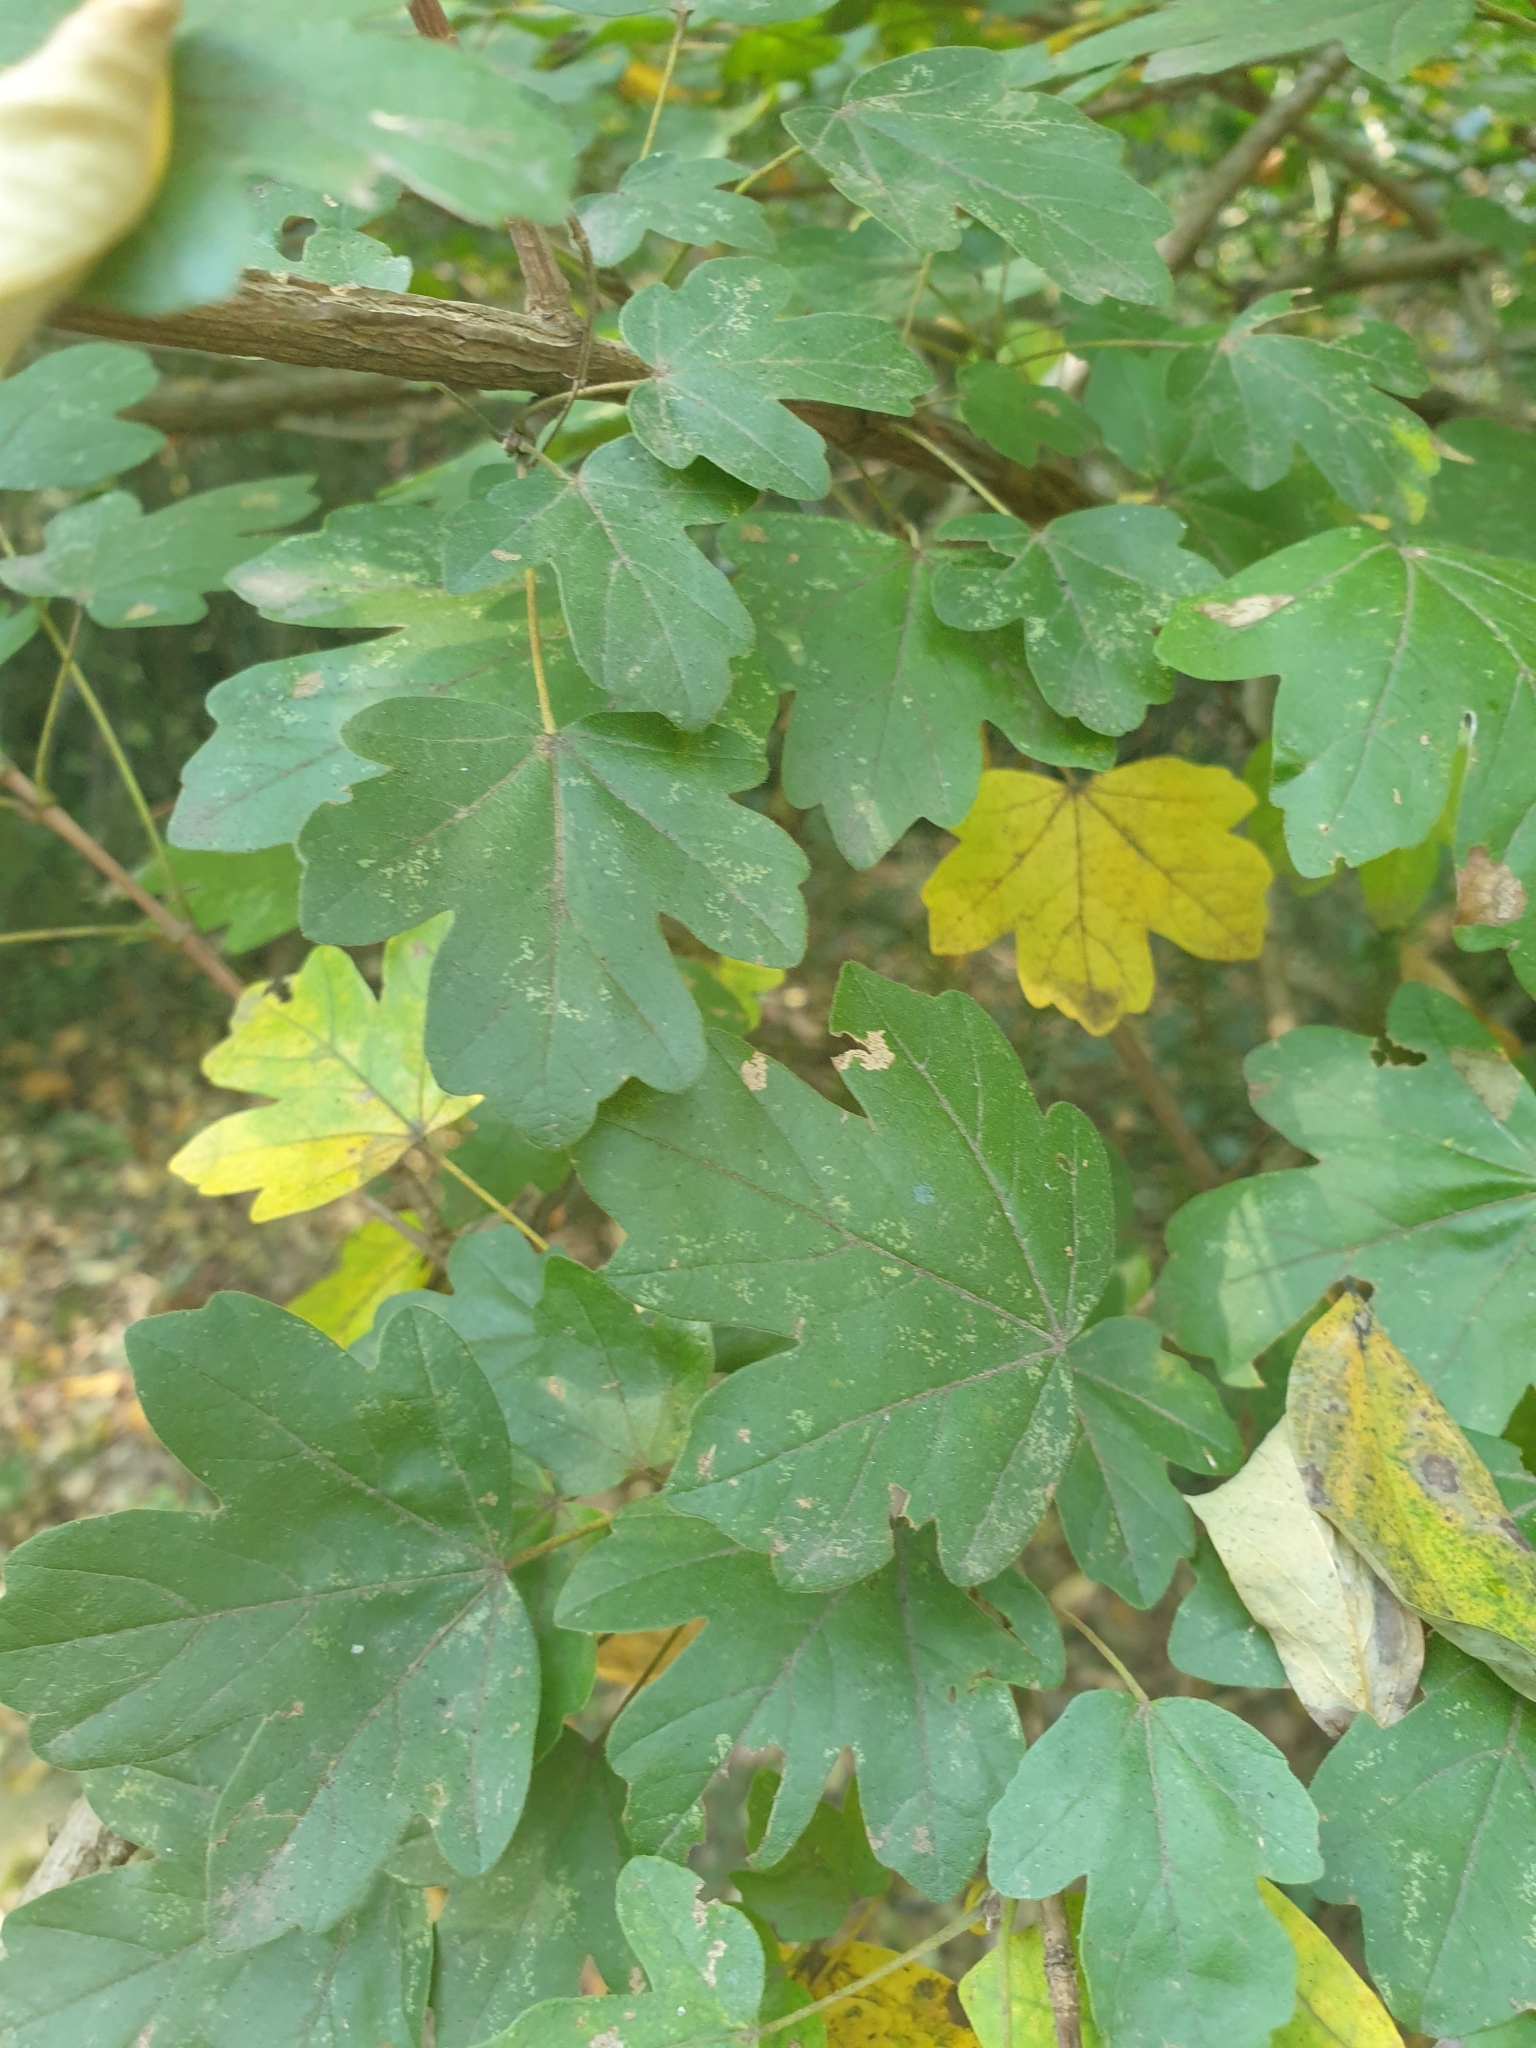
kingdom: Plantae
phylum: Tracheophyta
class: Magnoliopsida
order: Sapindales
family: Sapindaceae
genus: Acer
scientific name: Acer campestre
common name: Field maple
